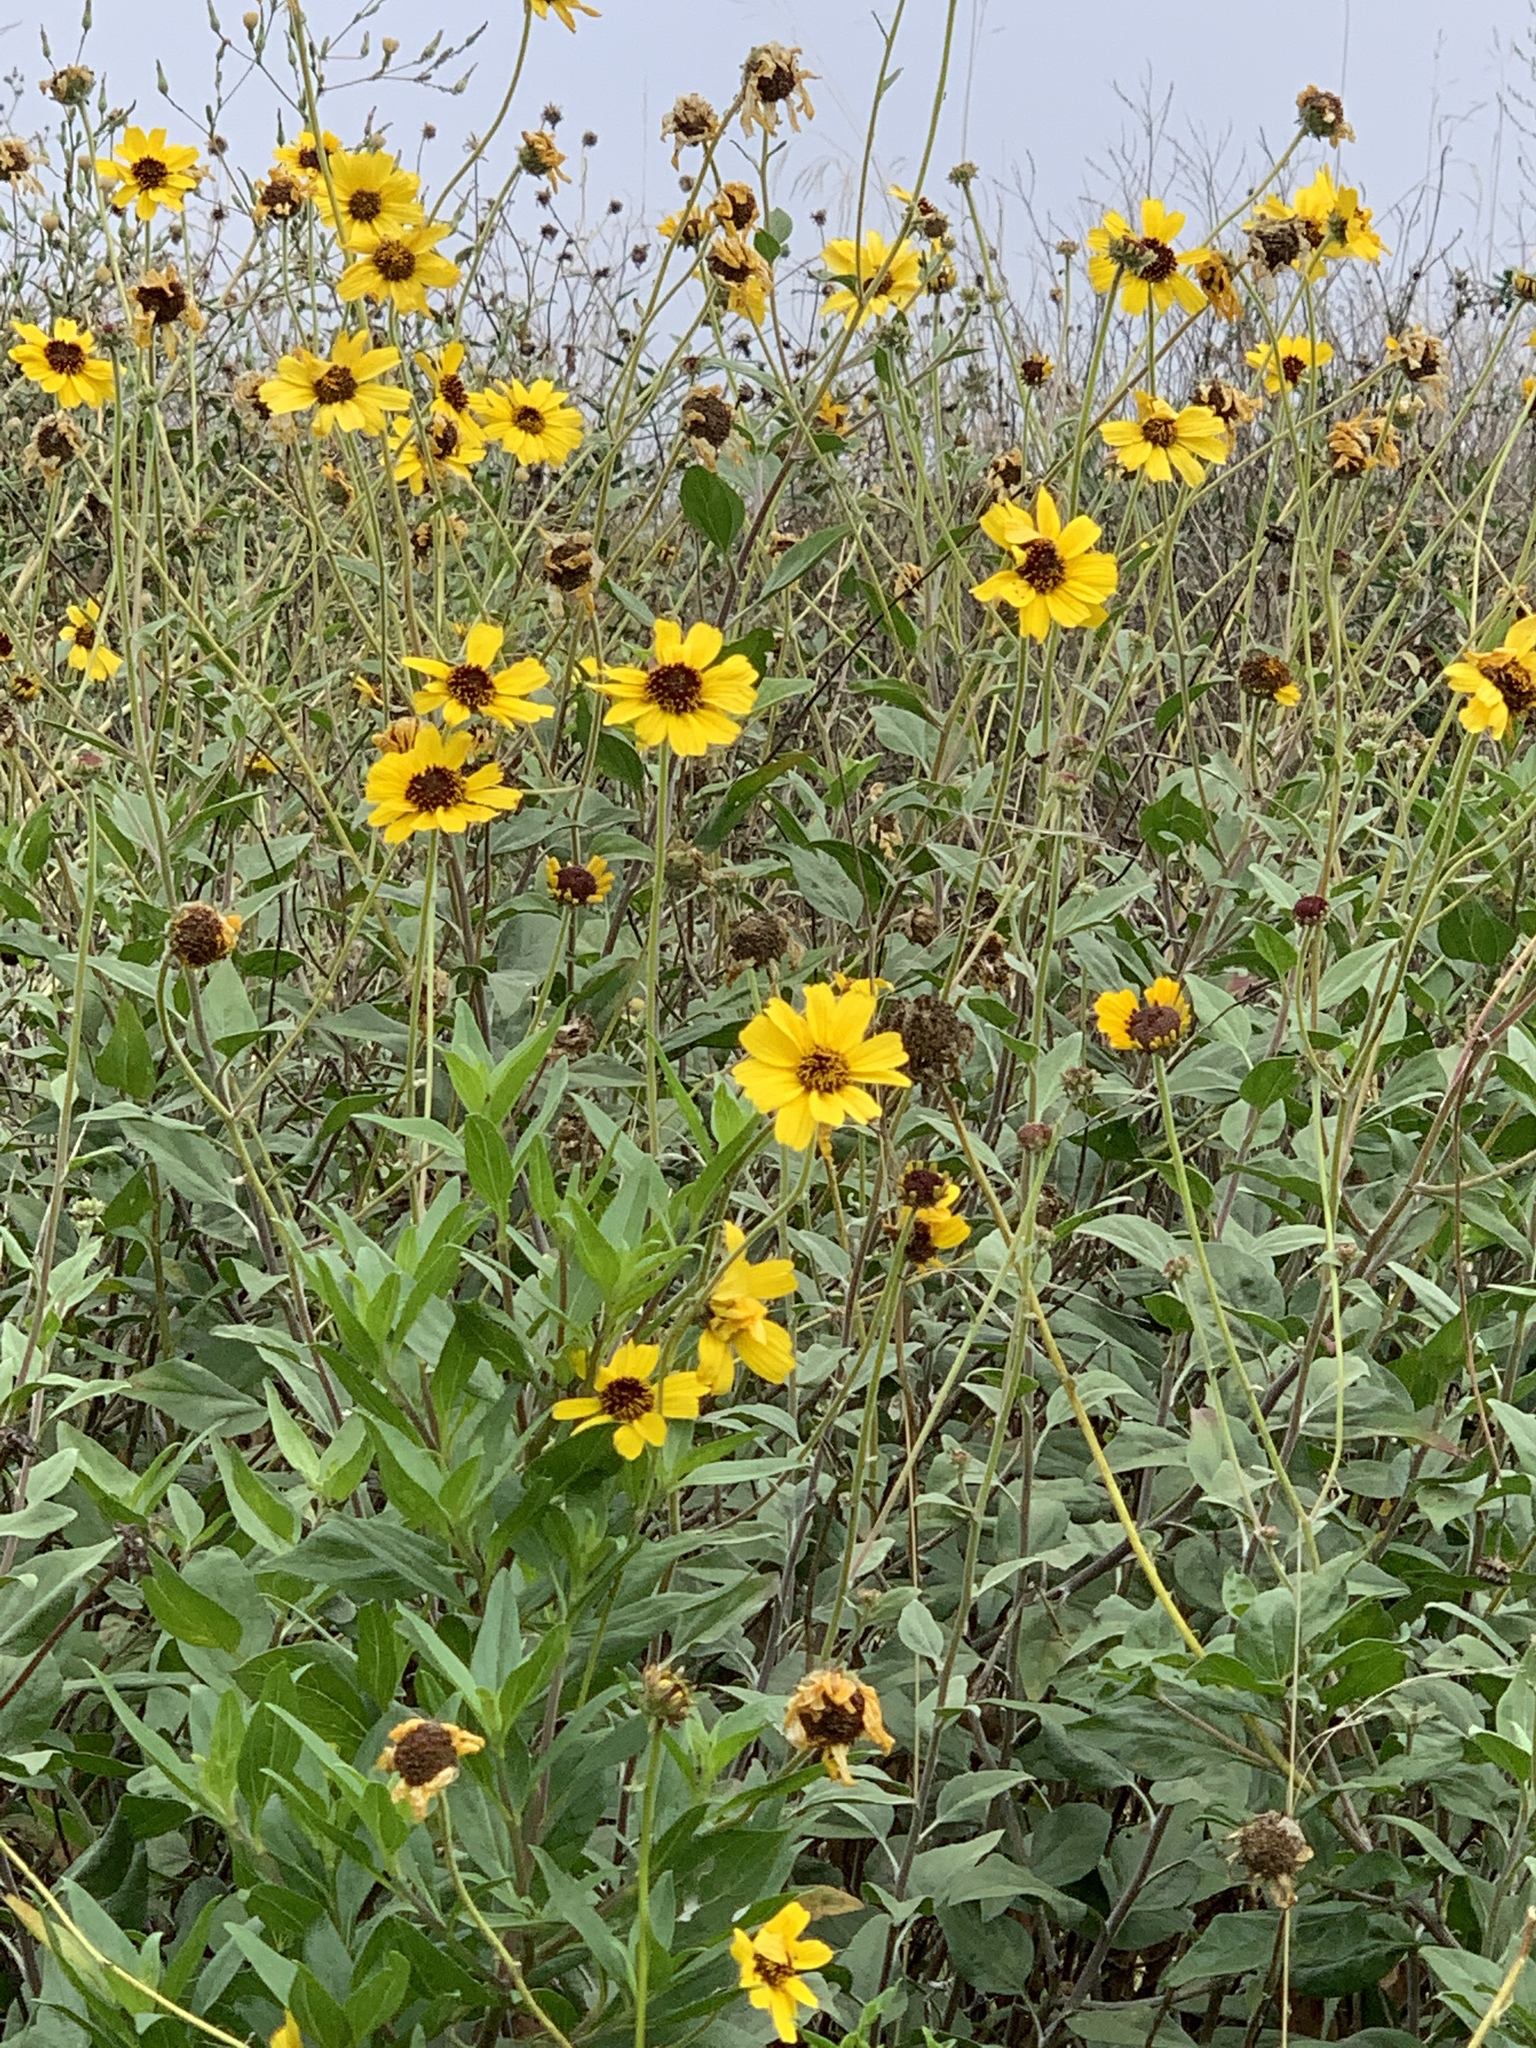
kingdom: Plantae
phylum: Tracheophyta
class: Magnoliopsida
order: Asterales
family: Asteraceae
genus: Encelia
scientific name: Encelia californica
